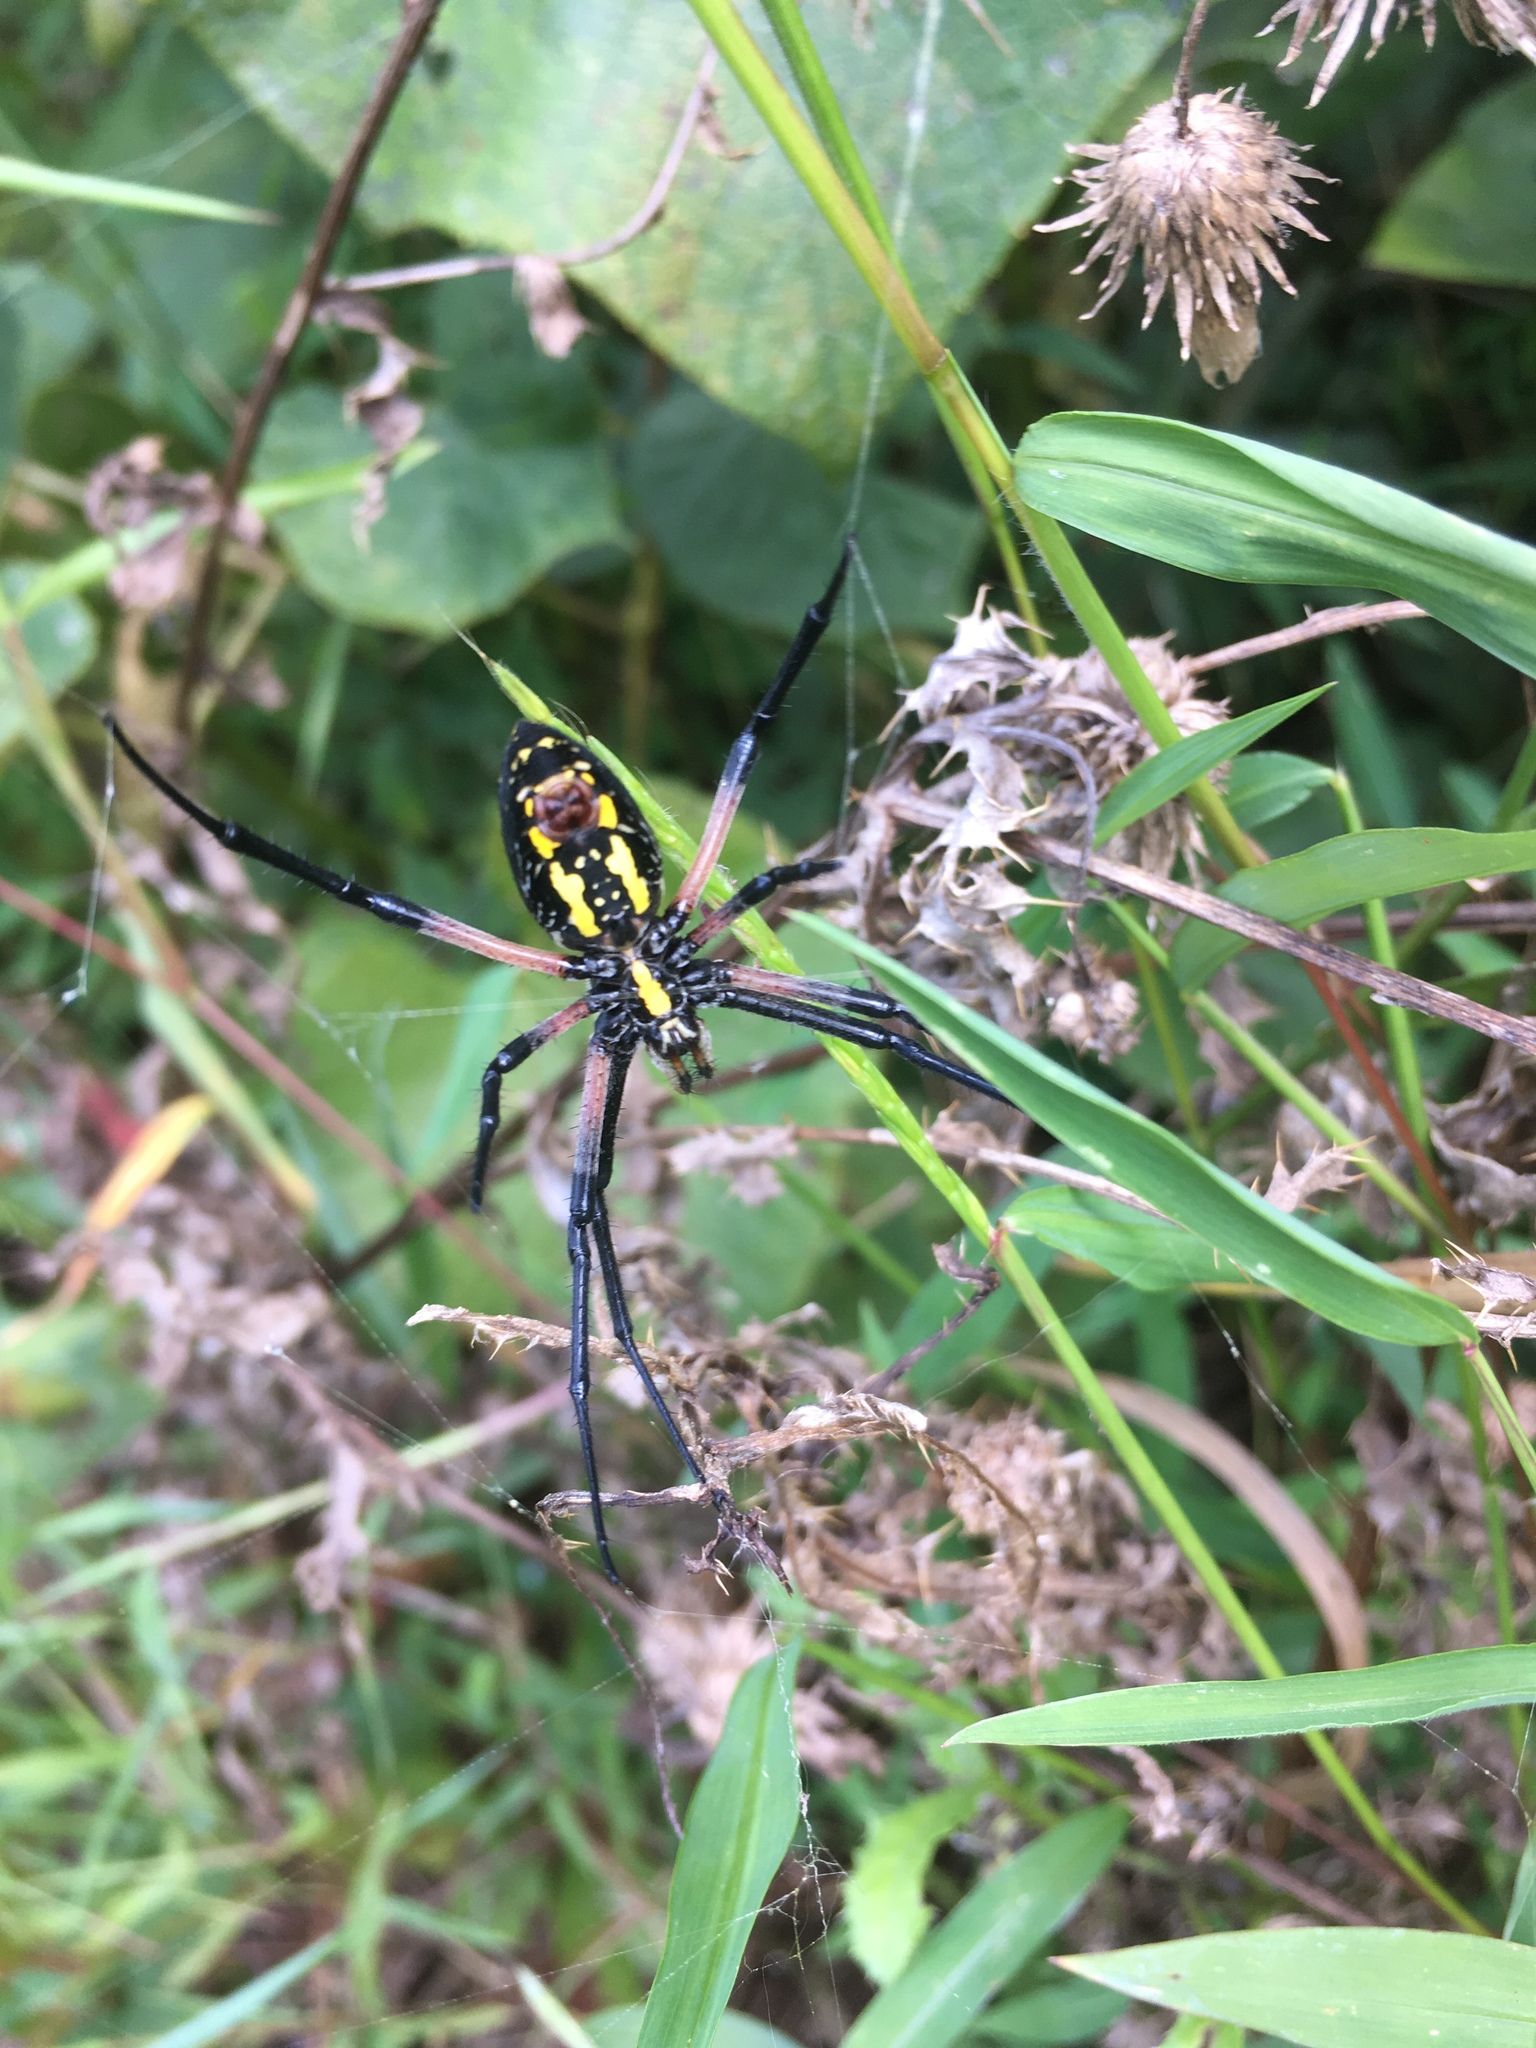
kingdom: Animalia
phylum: Arthropoda
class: Arachnida
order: Araneae
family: Araneidae
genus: Argiope
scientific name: Argiope aurantia
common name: Orb weavers
